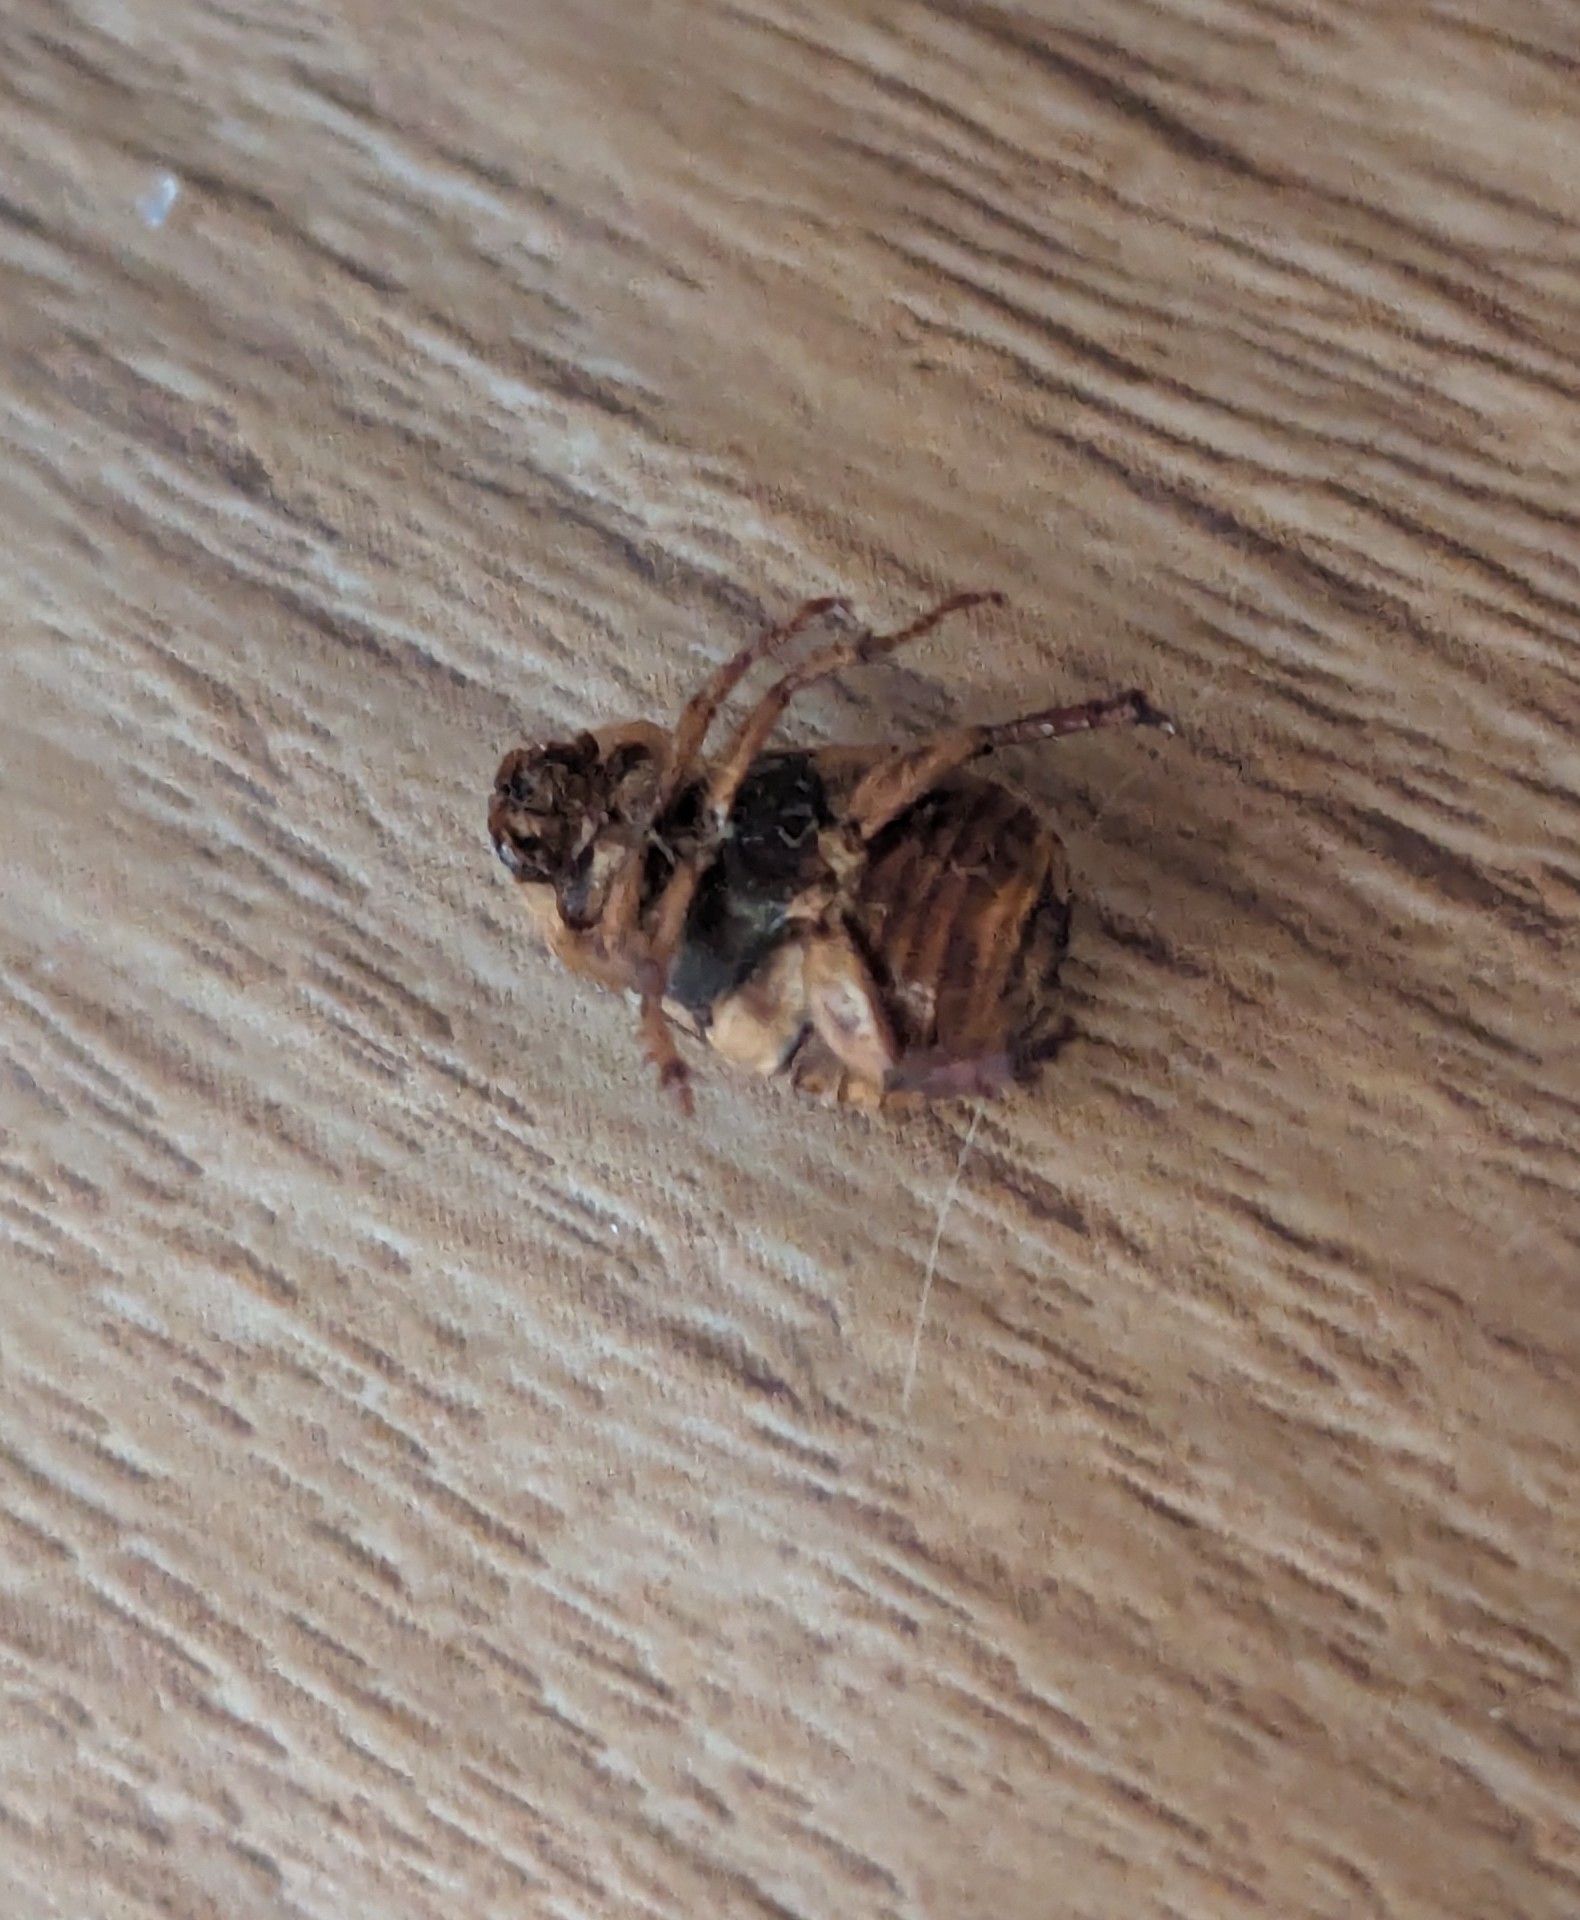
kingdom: Animalia
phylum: Arthropoda
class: Insecta
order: Coleoptera
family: Scarabaeidae
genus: Exomala
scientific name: Exomala orientalis
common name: Oriental beetle
